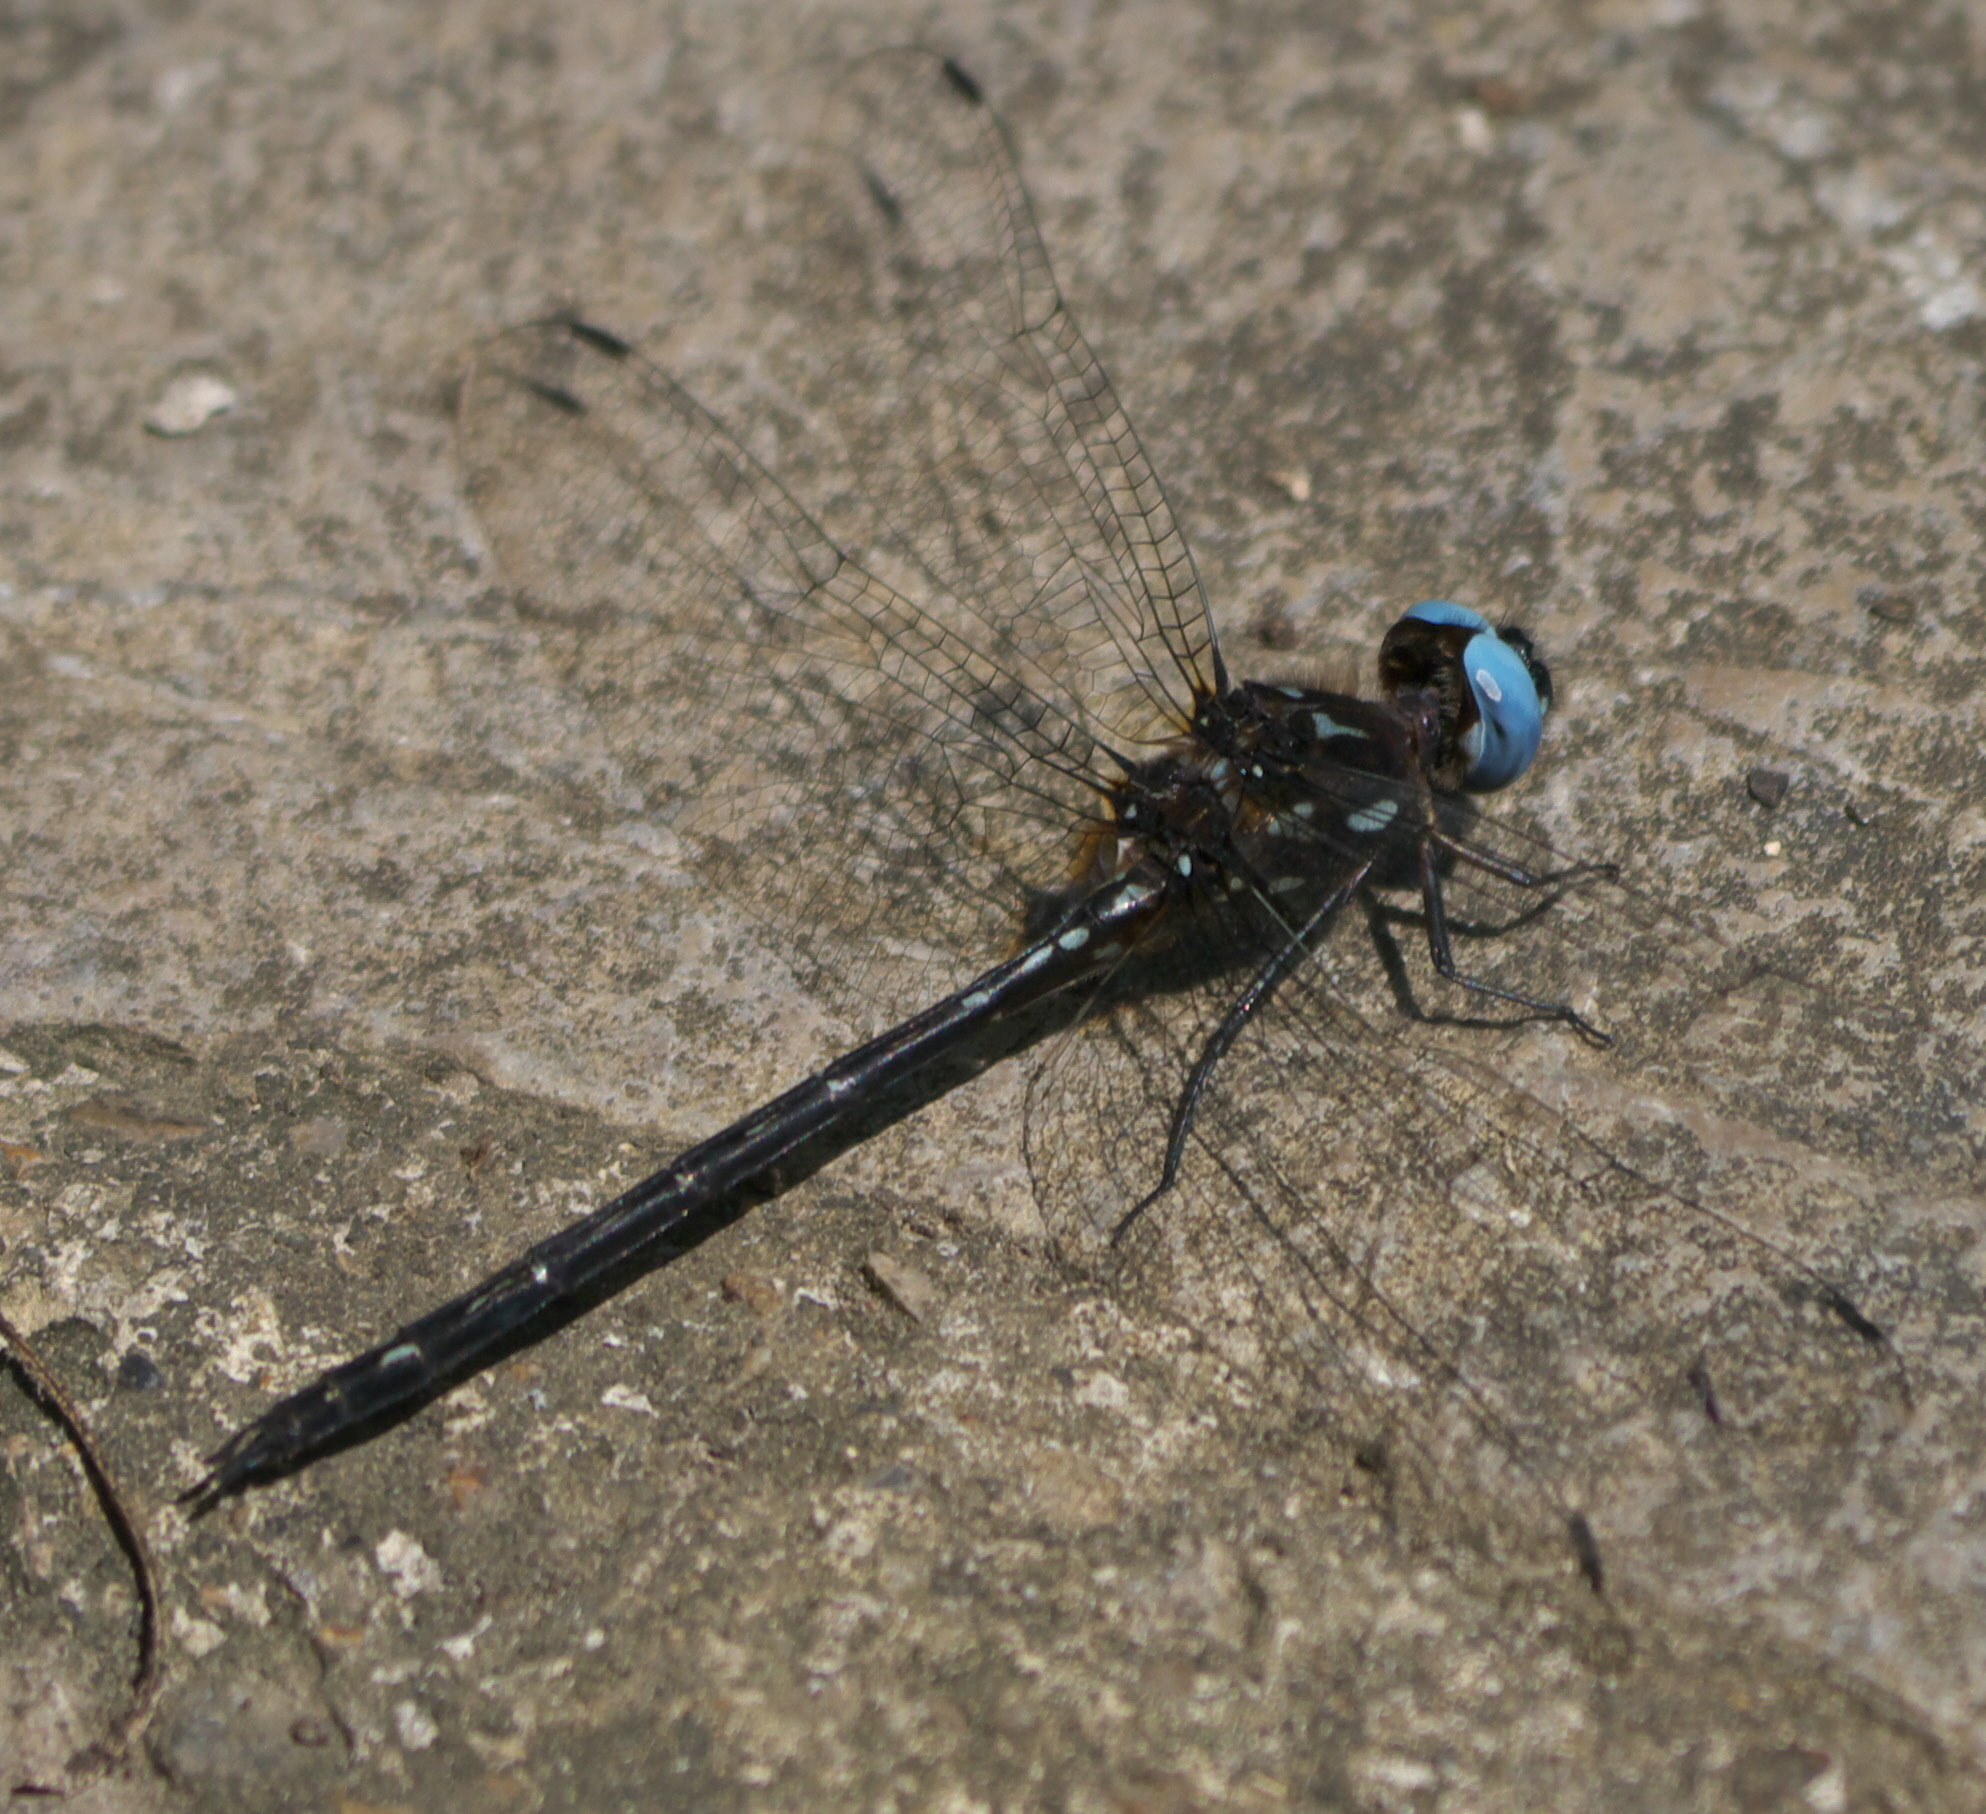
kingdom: Animalia
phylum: Arthropoda
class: Insecta
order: Odonata
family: Libellulidae
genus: Macrothemis
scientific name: Macrothemis celeno
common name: Antillean sylph
